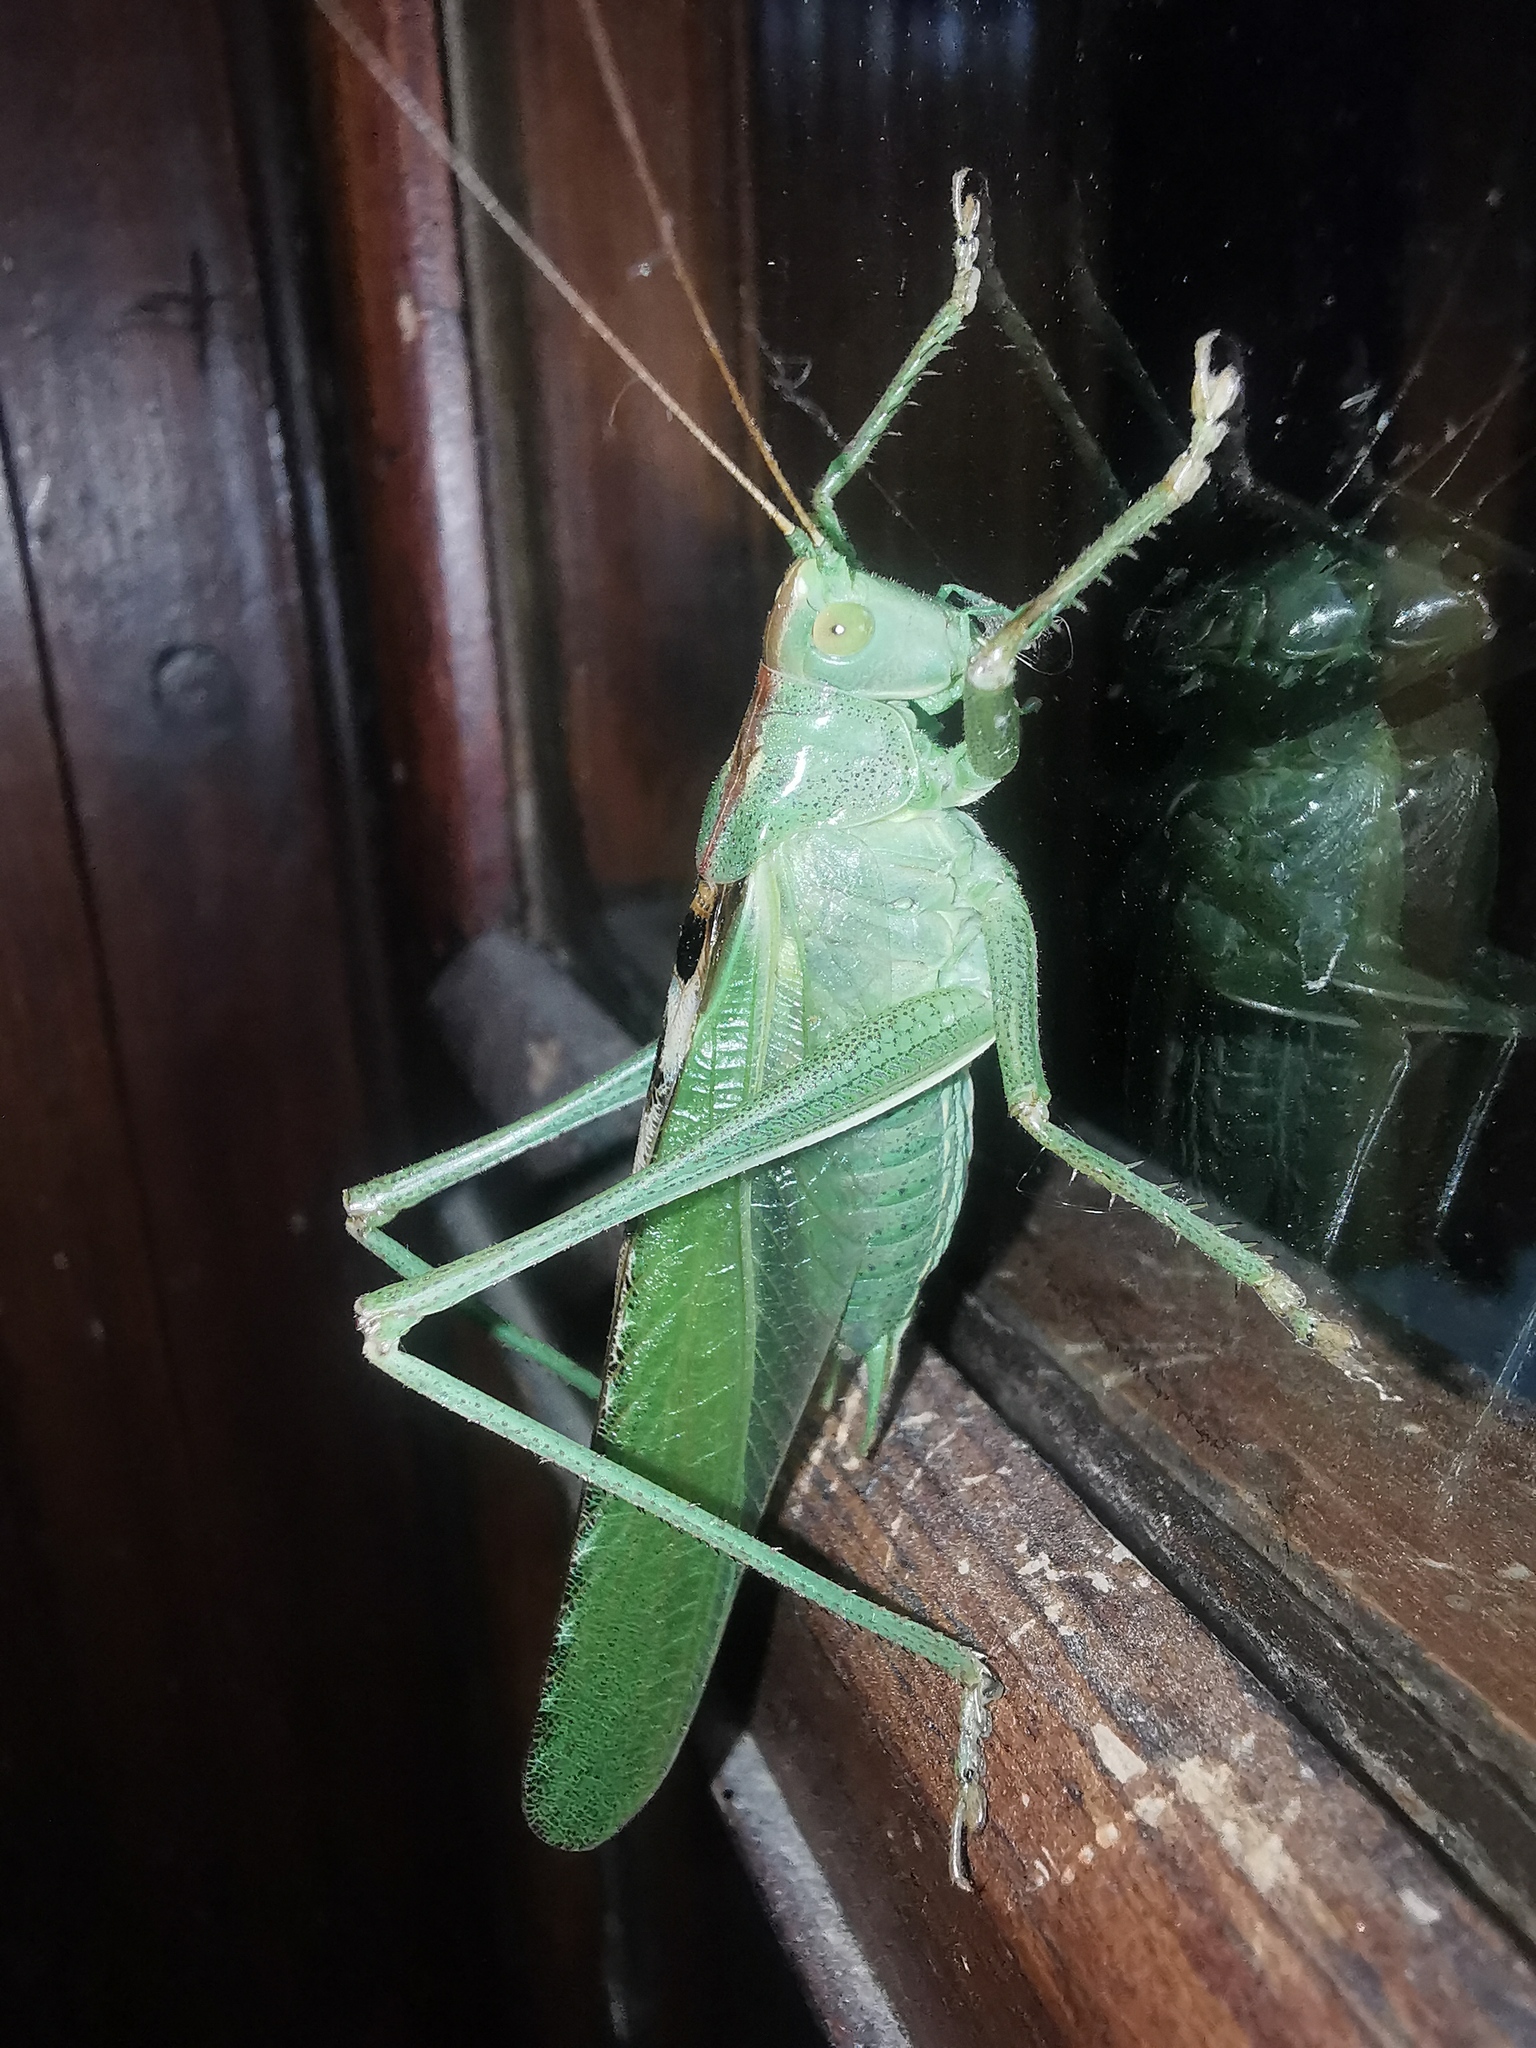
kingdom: Animalia
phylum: Arthropoda
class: Insecta
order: Orthoptera
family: Tettigoniidae
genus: Tettigonia
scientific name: Tettigonia viridissima
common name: Great green bush-cricket
